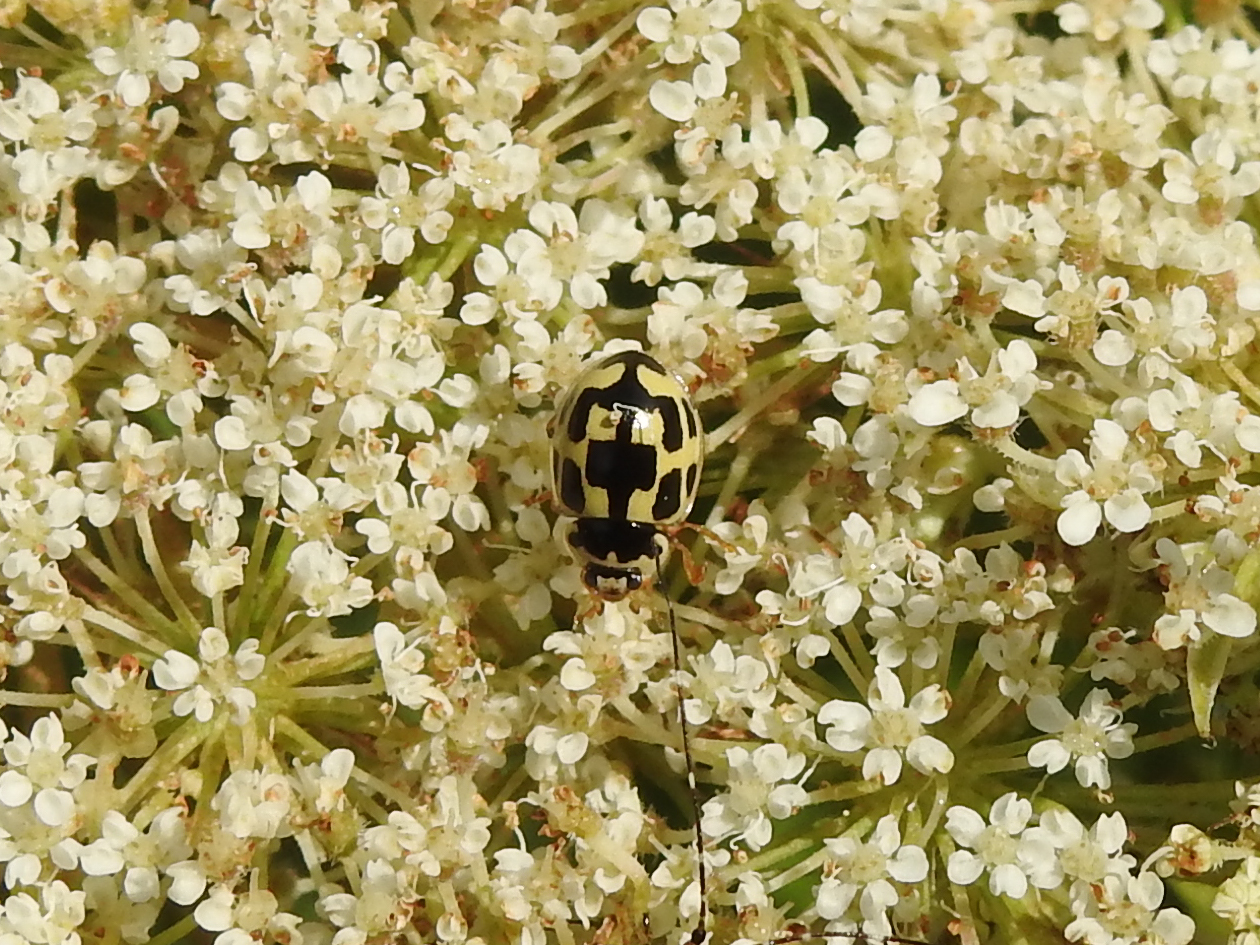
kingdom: Animalia
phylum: Arthropoda
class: Insecta
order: Coleoptera
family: Coccinellidae
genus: Propylaea
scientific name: Propylaea quatuordecimpunctata
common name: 14-spotted ladybird beetle
